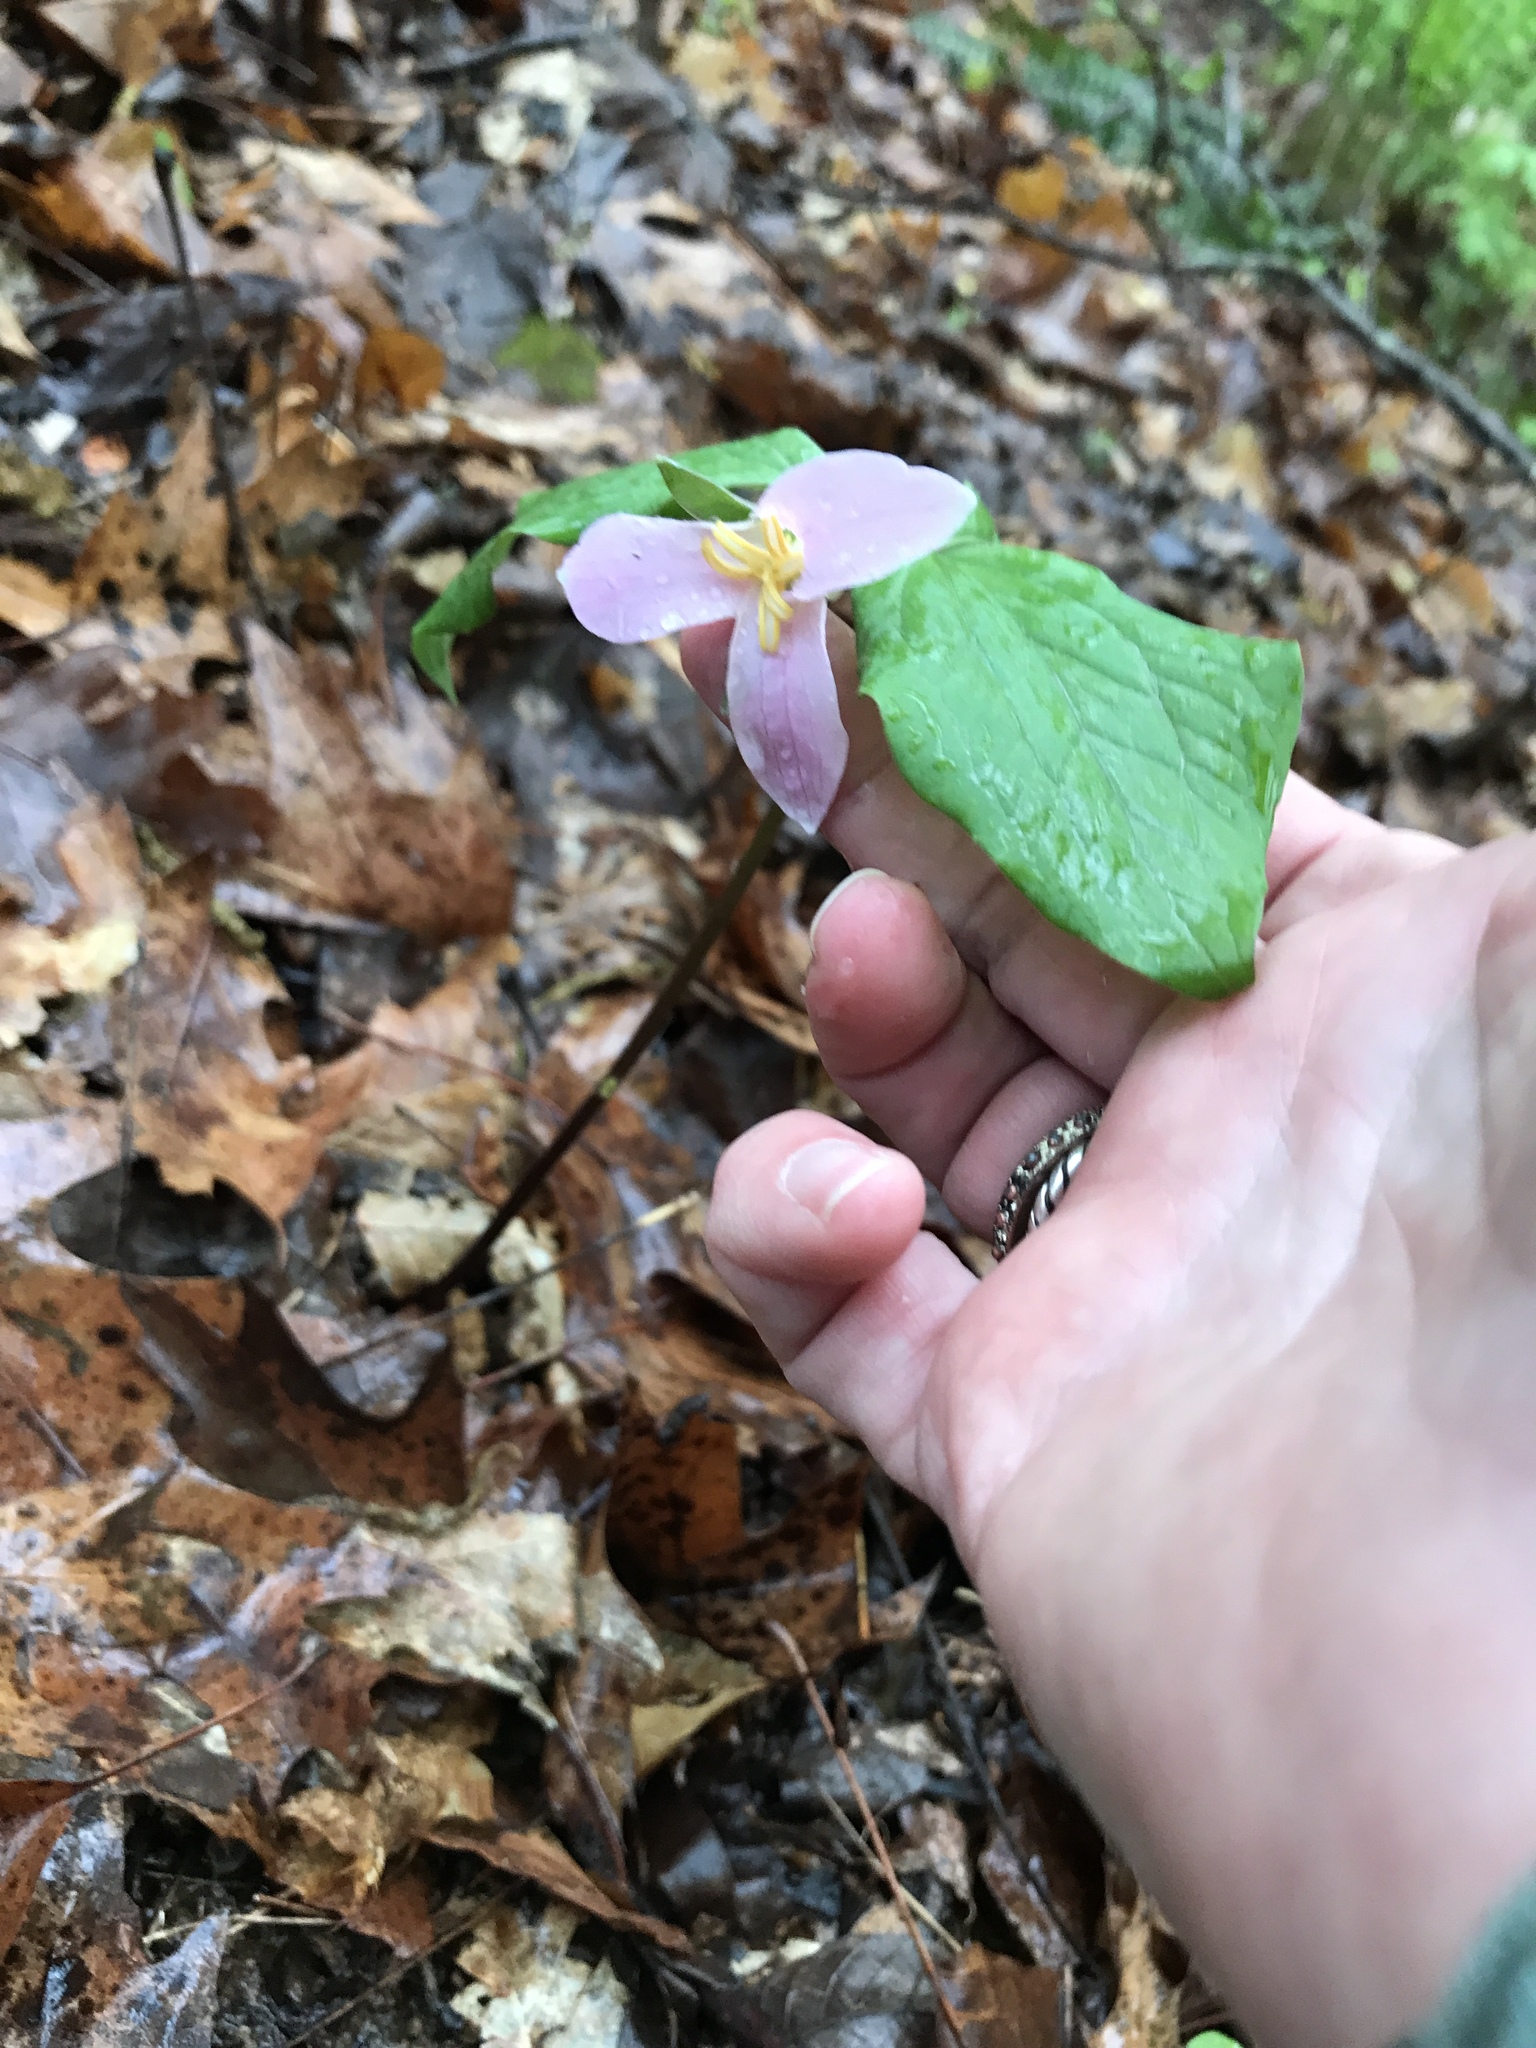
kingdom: Plantae
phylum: Tracheophyta
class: Liliopsida
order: Liliales
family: Melanthiaceae
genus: Trillium
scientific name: Trillium catesbaei
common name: Bashful trillium
